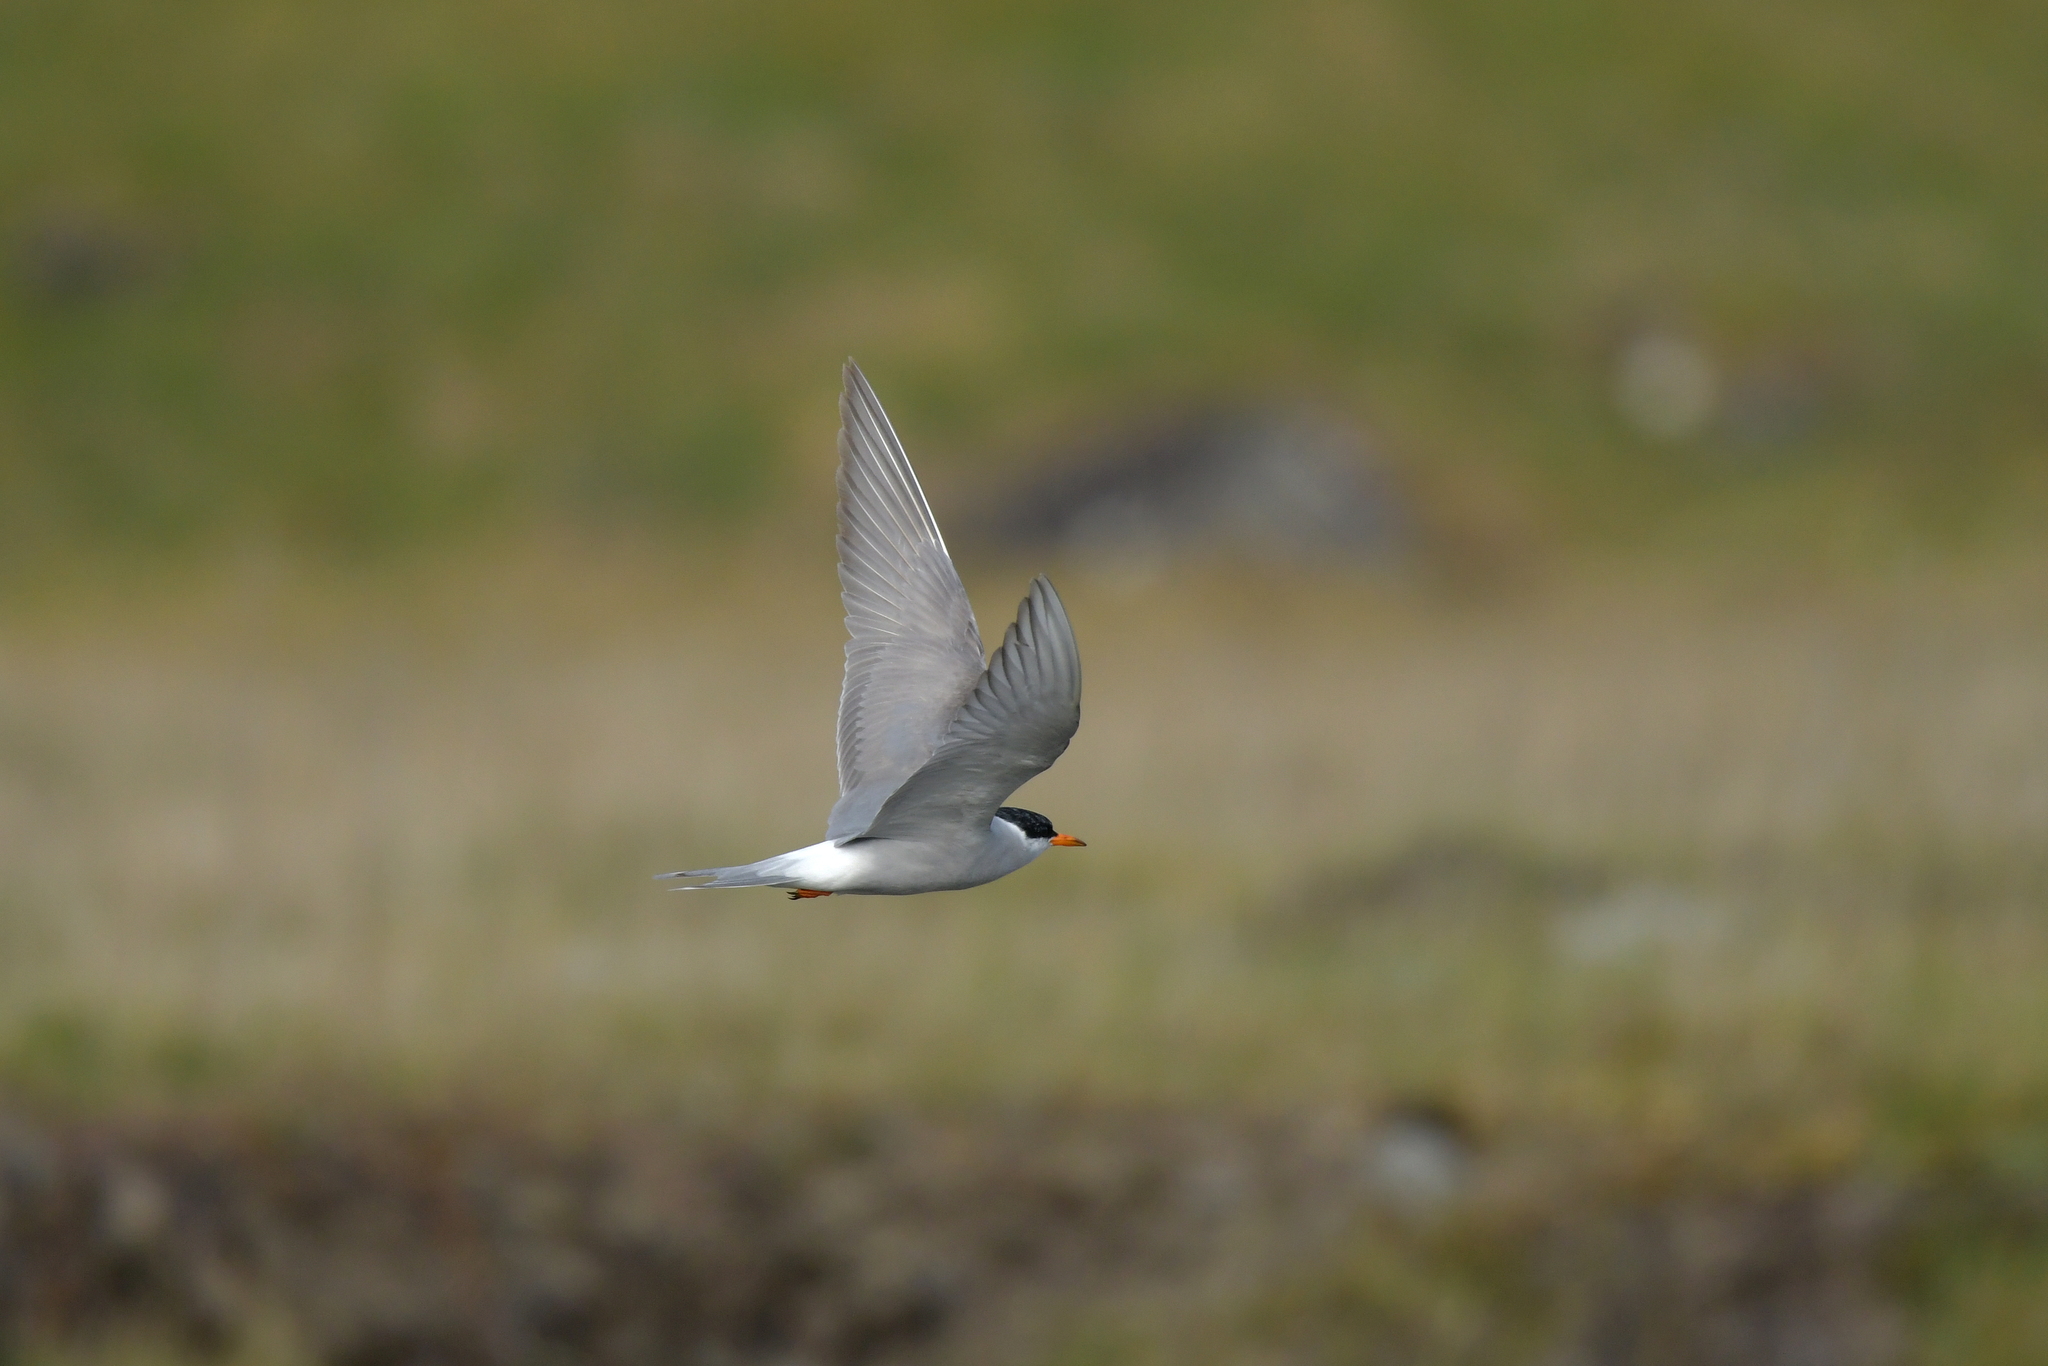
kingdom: Animalia
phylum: Chordata
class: Aves
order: Charadriiformes
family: Laridae
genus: Chlidonias
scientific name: Chlidonias albostriatus
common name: Black-fronted tern
